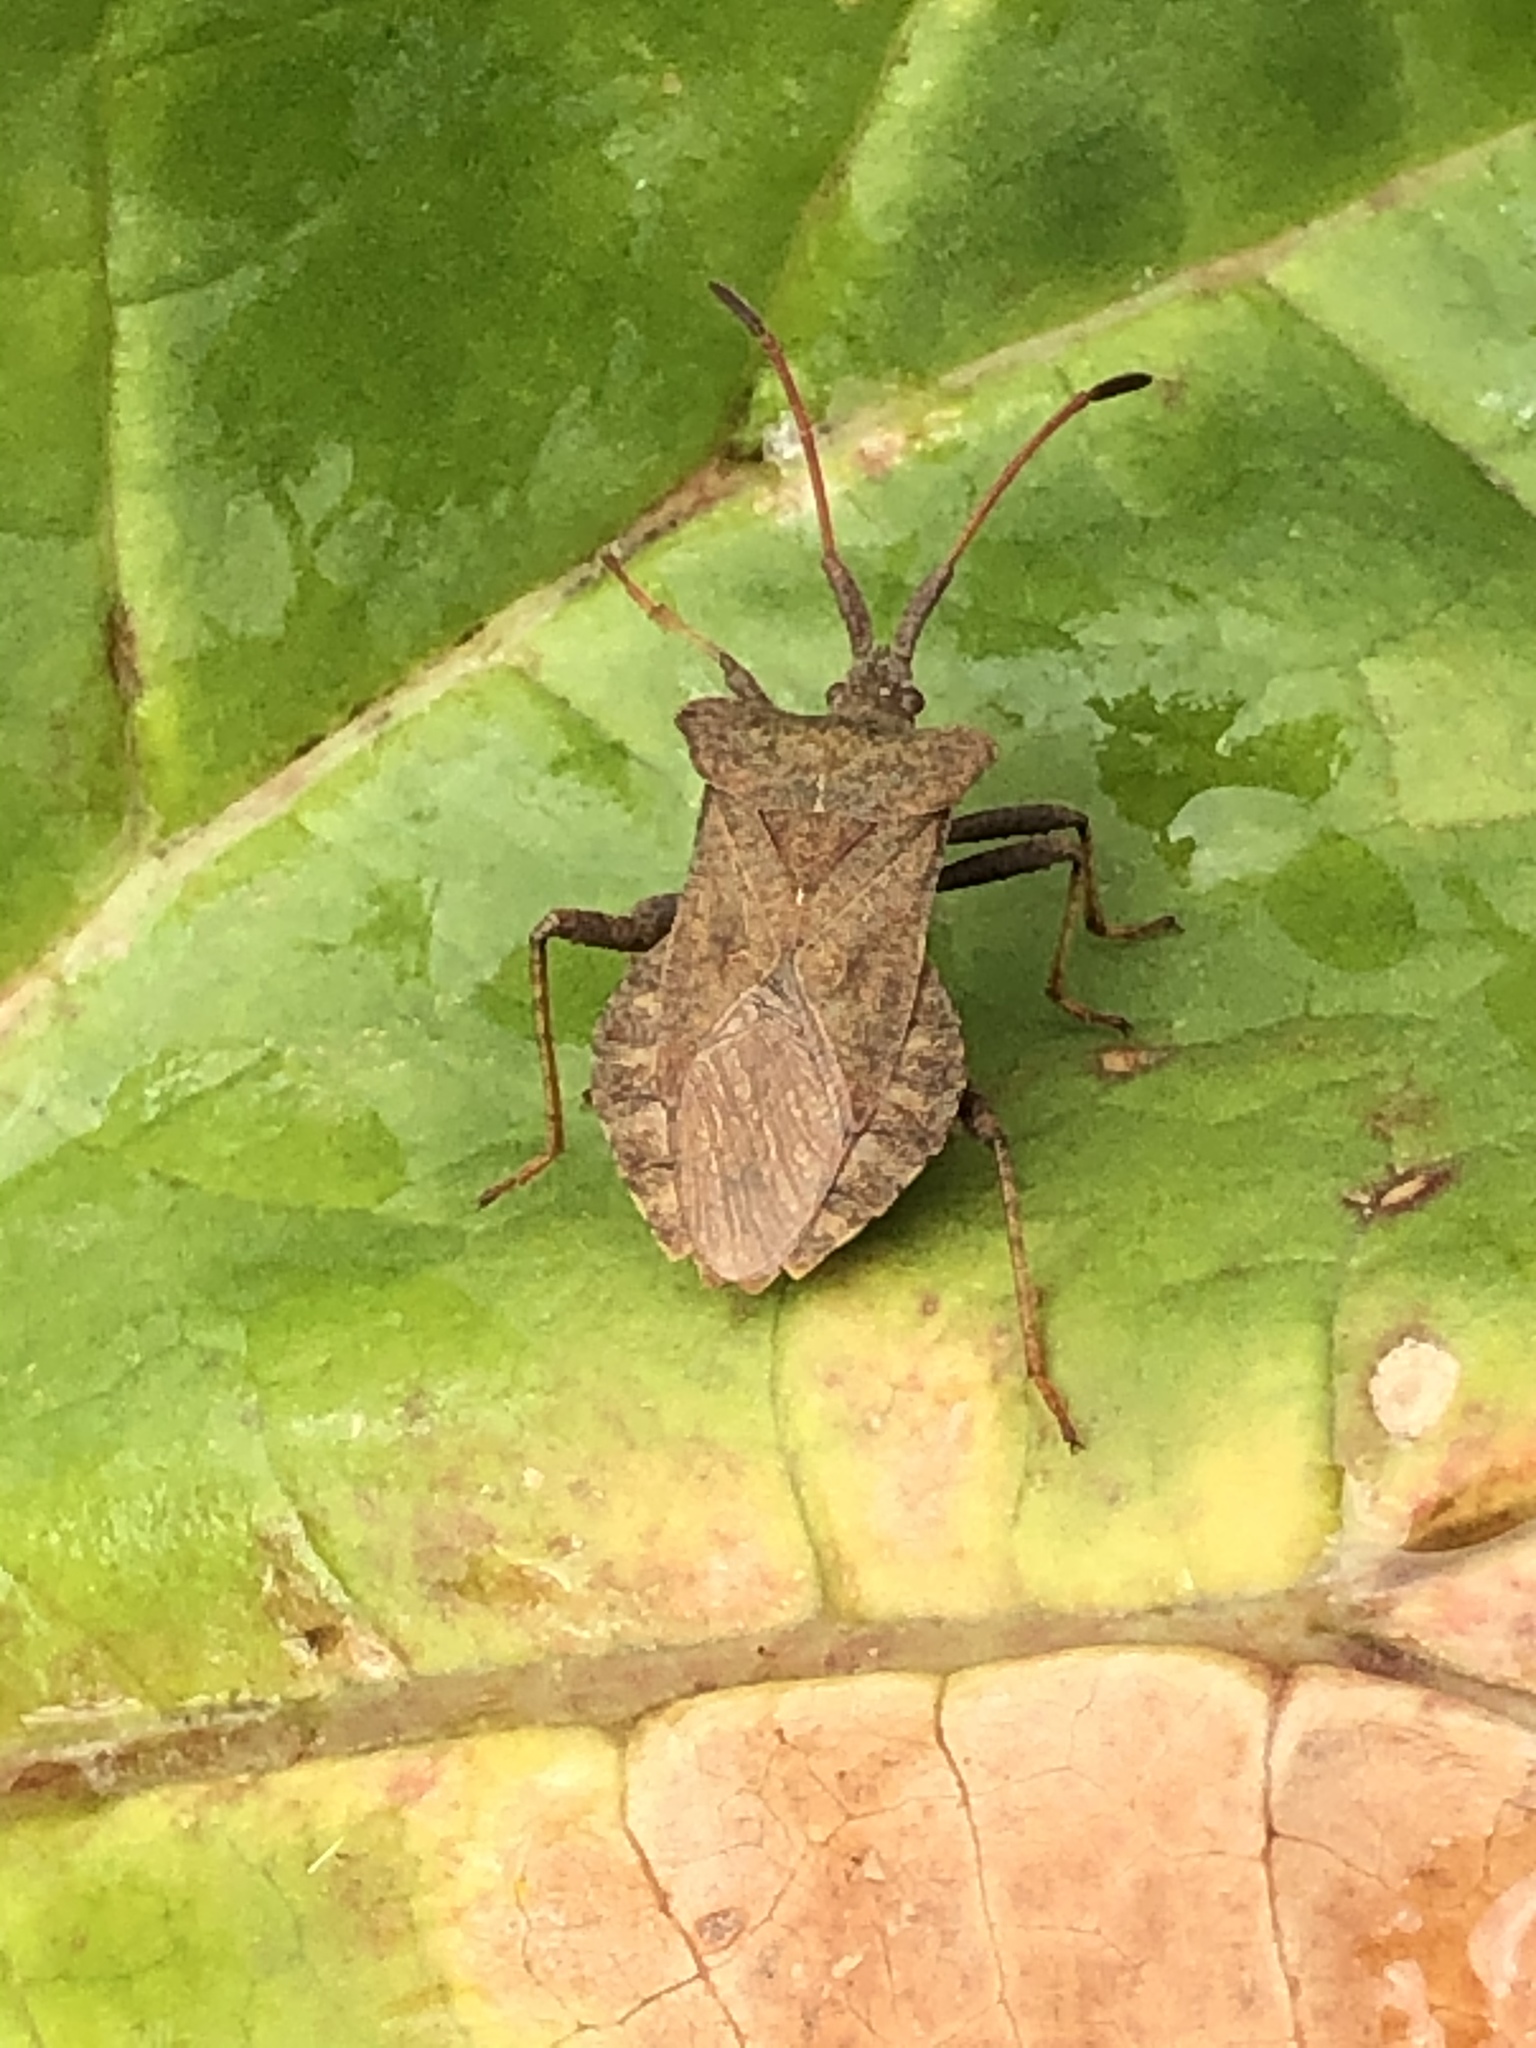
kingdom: Animalia
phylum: Arthropoda
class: Insecta
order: Hemiptera
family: Coreidae
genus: Coreus
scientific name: Coreus marginatus
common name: Dock bug
